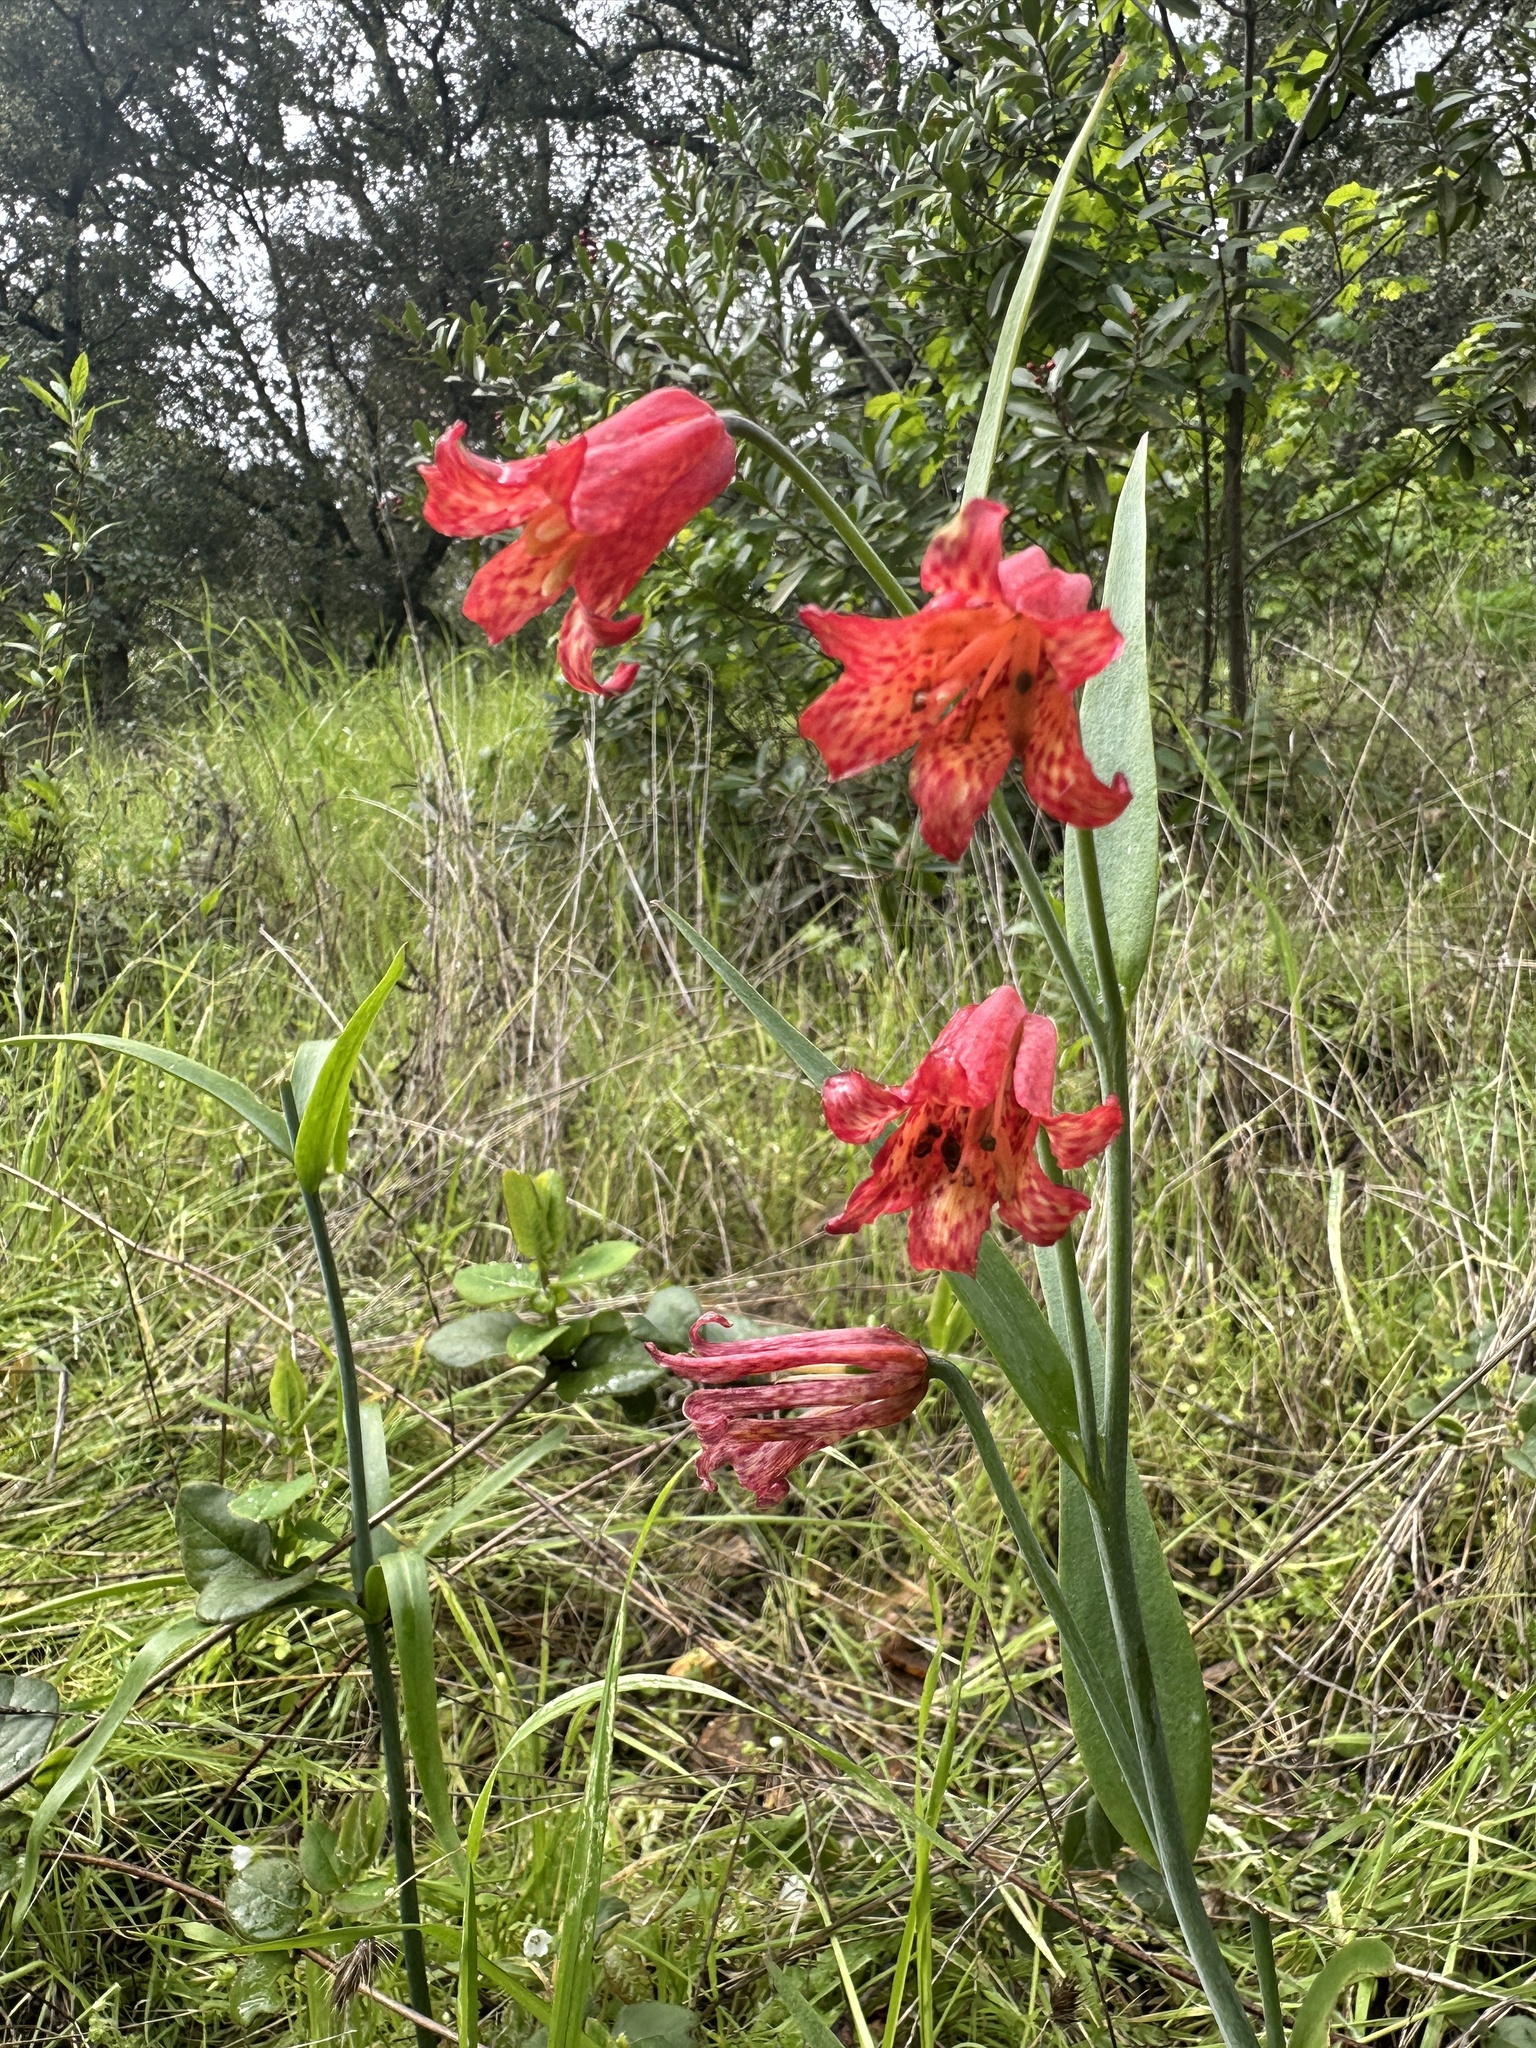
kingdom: Plantae
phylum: Tracheophyta
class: Liliopsida
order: Liliales
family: Liliaceae
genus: Fritillaria
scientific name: Fritillaria recurva
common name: Scarlet fritillary
